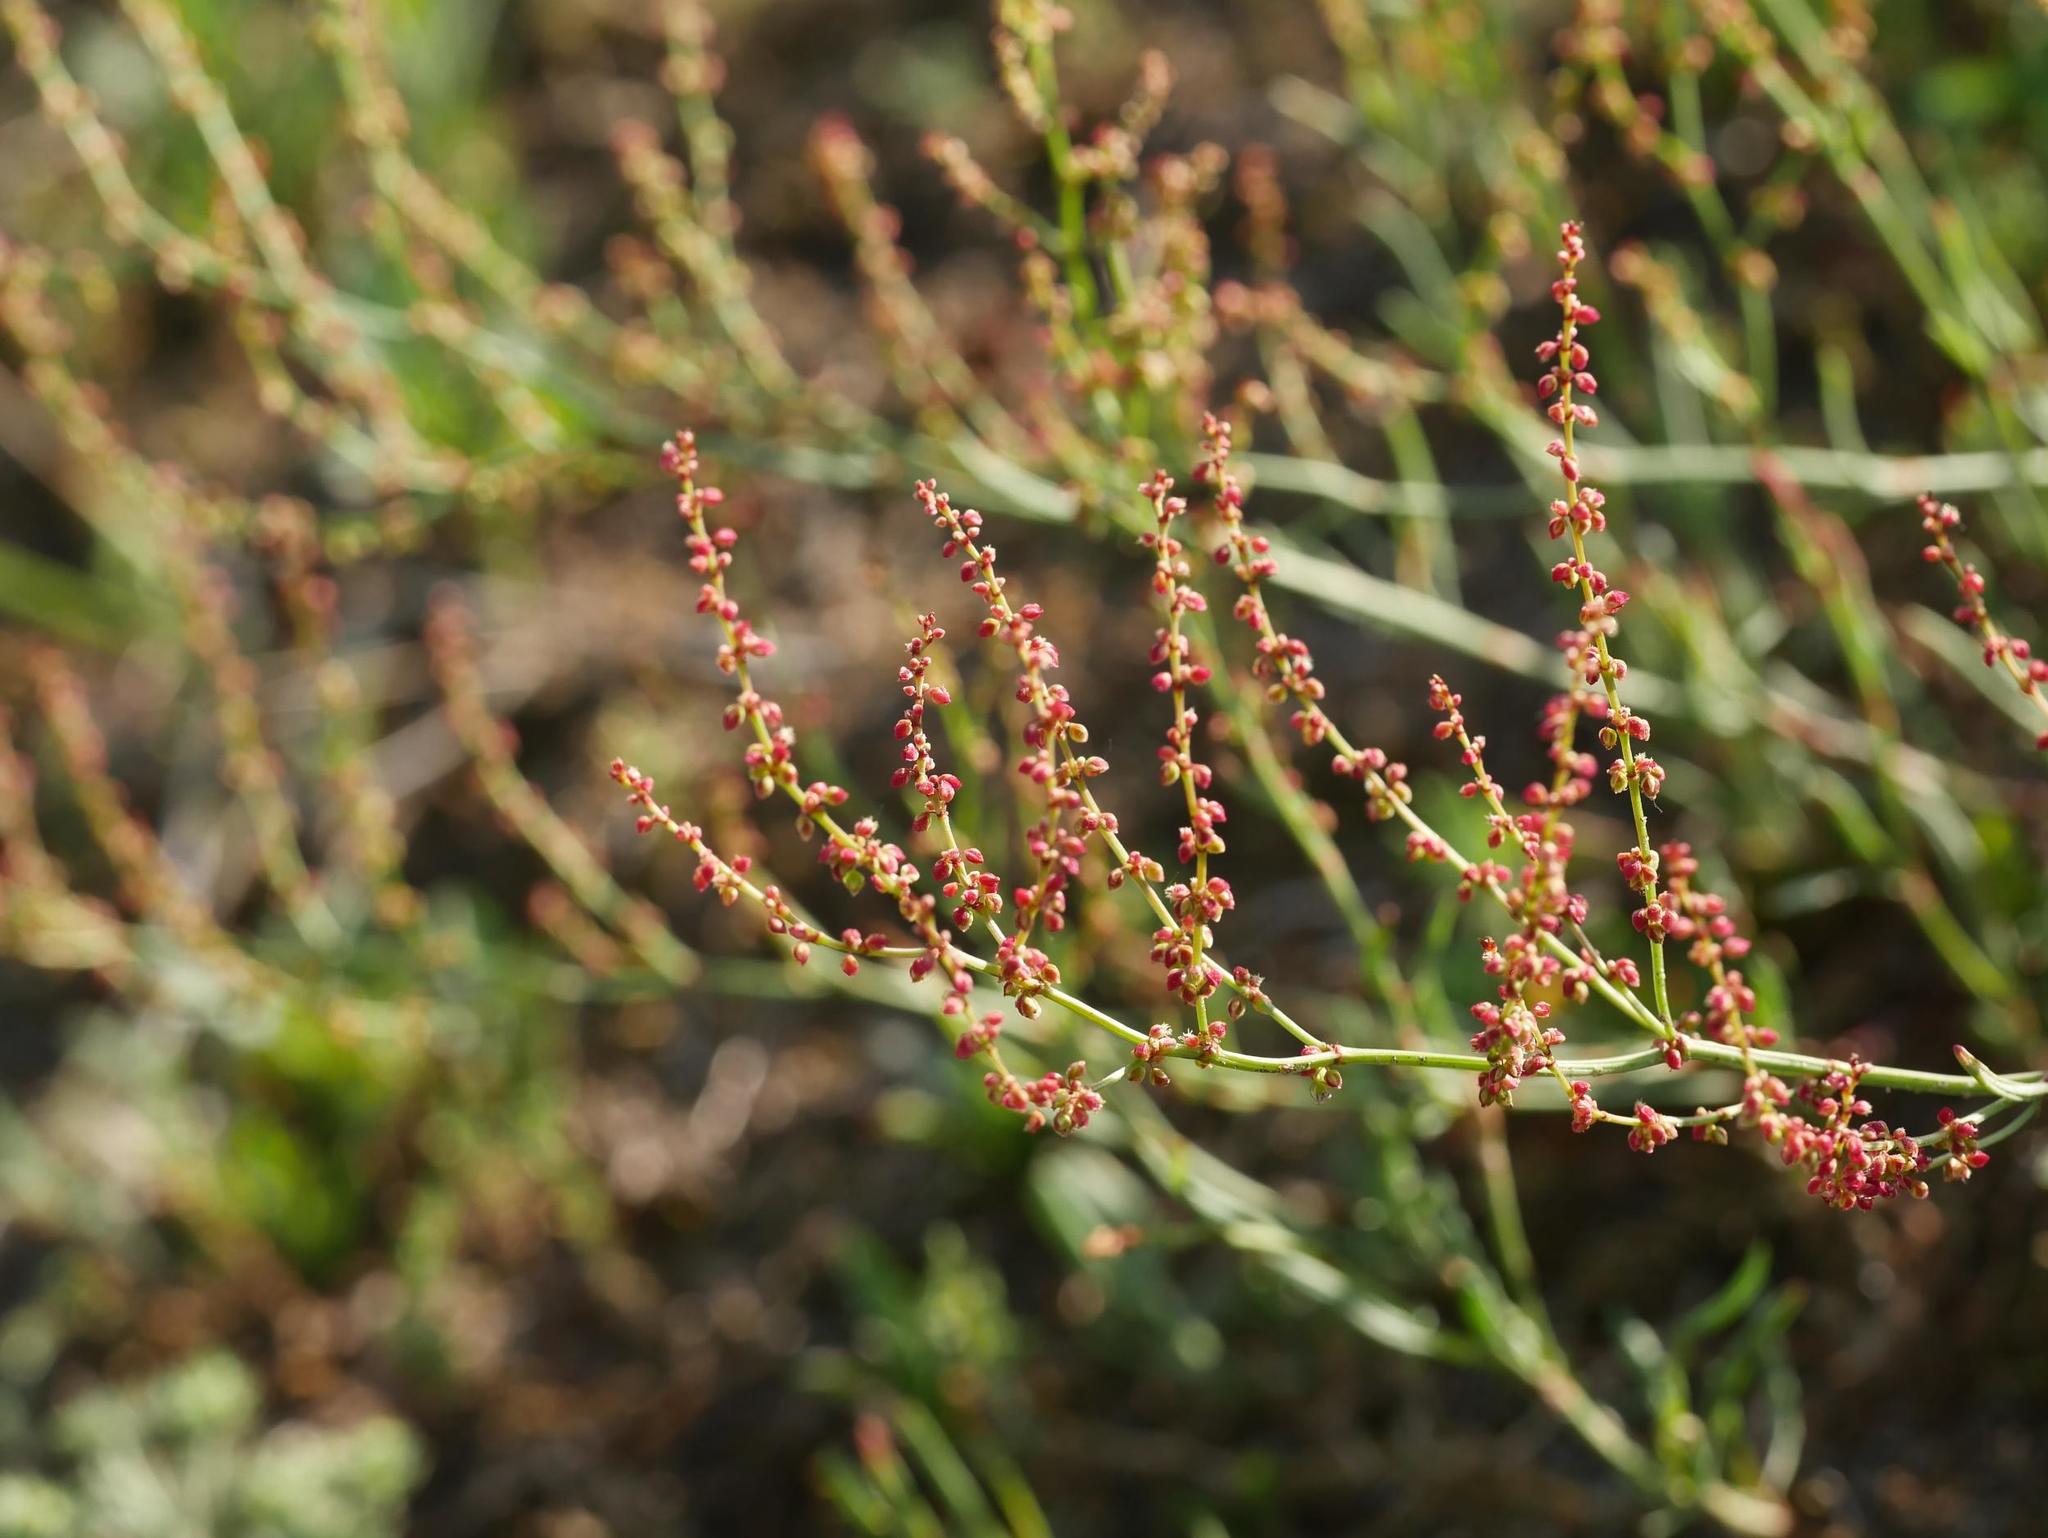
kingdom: Plantae
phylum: Tracheophyta
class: Magnoliopsida
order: Caryophyllales
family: Polygonaceae
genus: Rumex
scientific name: Rumex acetosella
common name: Common sheep sorrel
